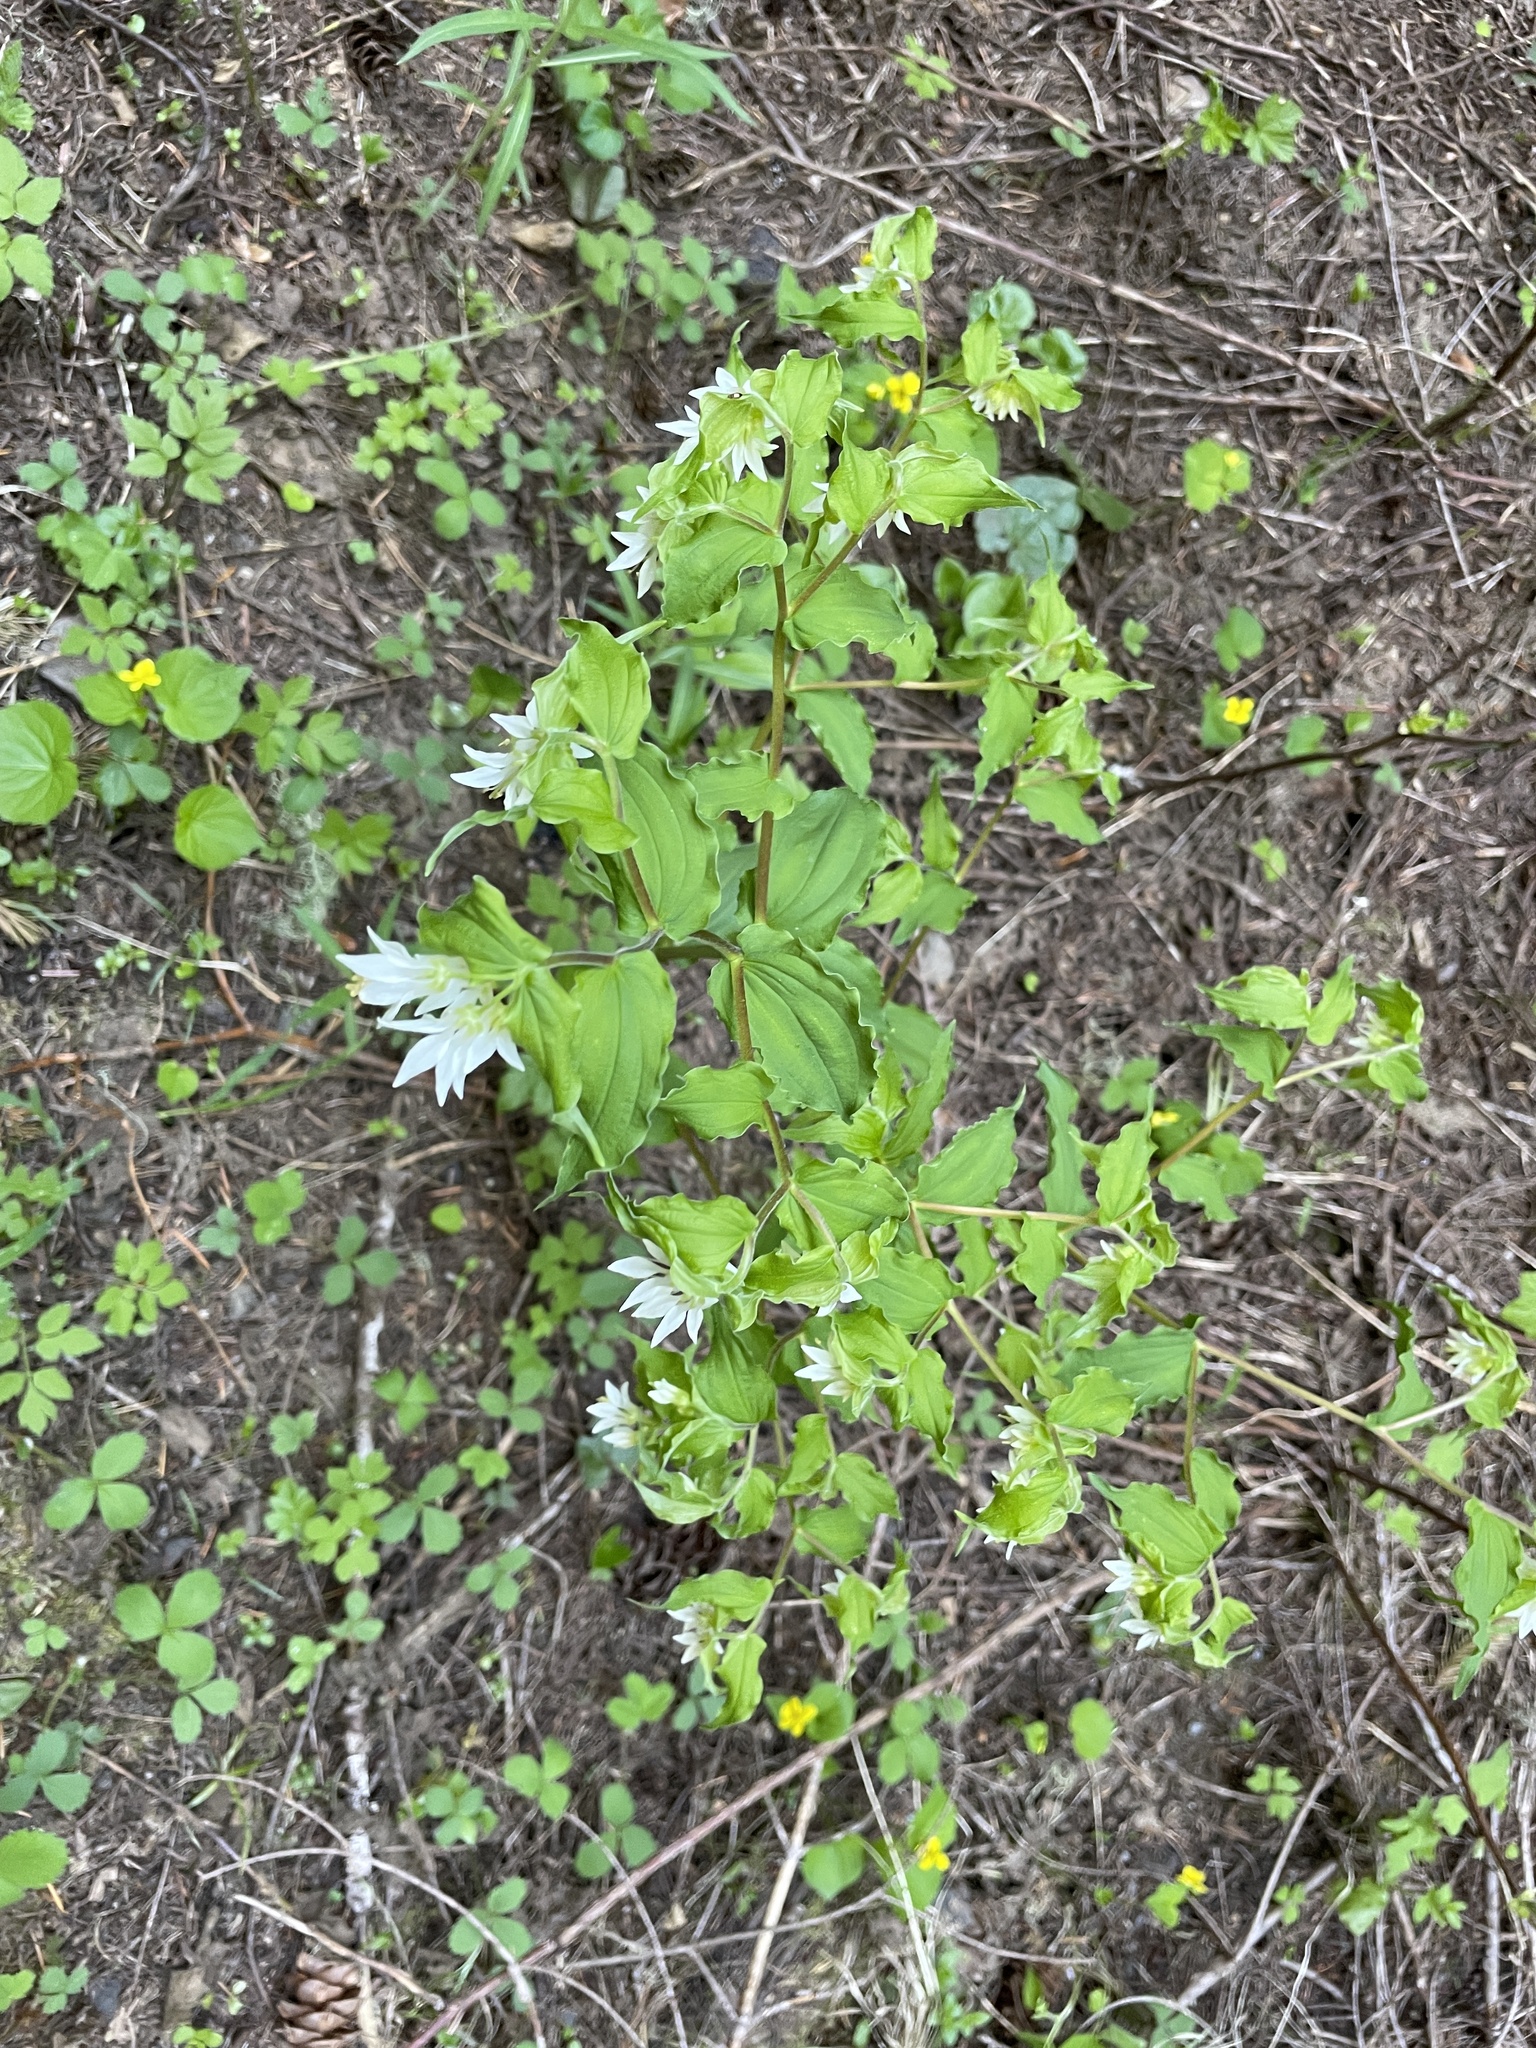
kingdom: Plantae
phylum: Tracheophyta
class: Liliopsida
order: Liliales
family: Liliaceae
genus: Prosartes
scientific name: Prosartes hookeri
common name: Fairy-bells
